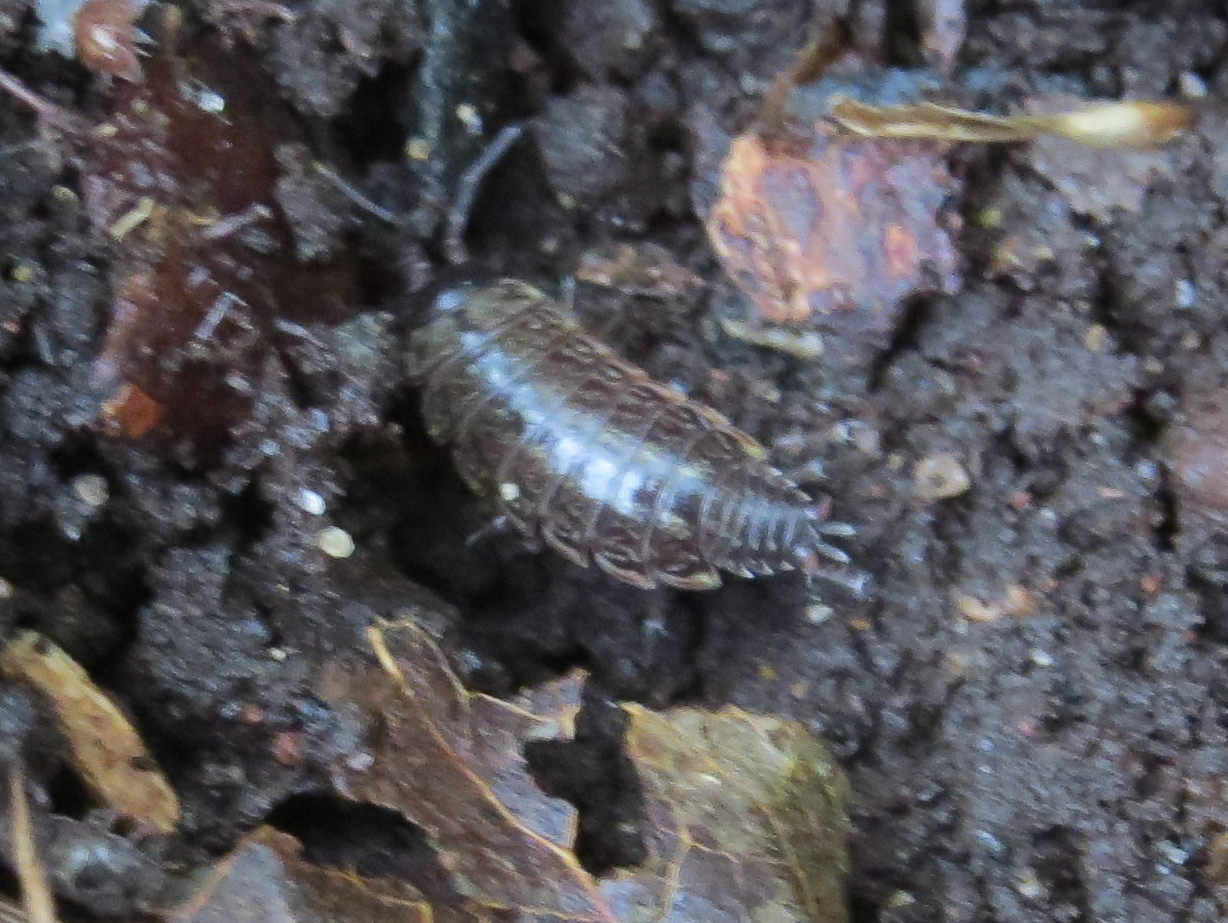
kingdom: Animalia
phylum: Arthropoda
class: Malacostraca
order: Isopoda
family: Philosciidae
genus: Philoscia
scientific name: Philoscia muscorum
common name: Common striped woodlouse
